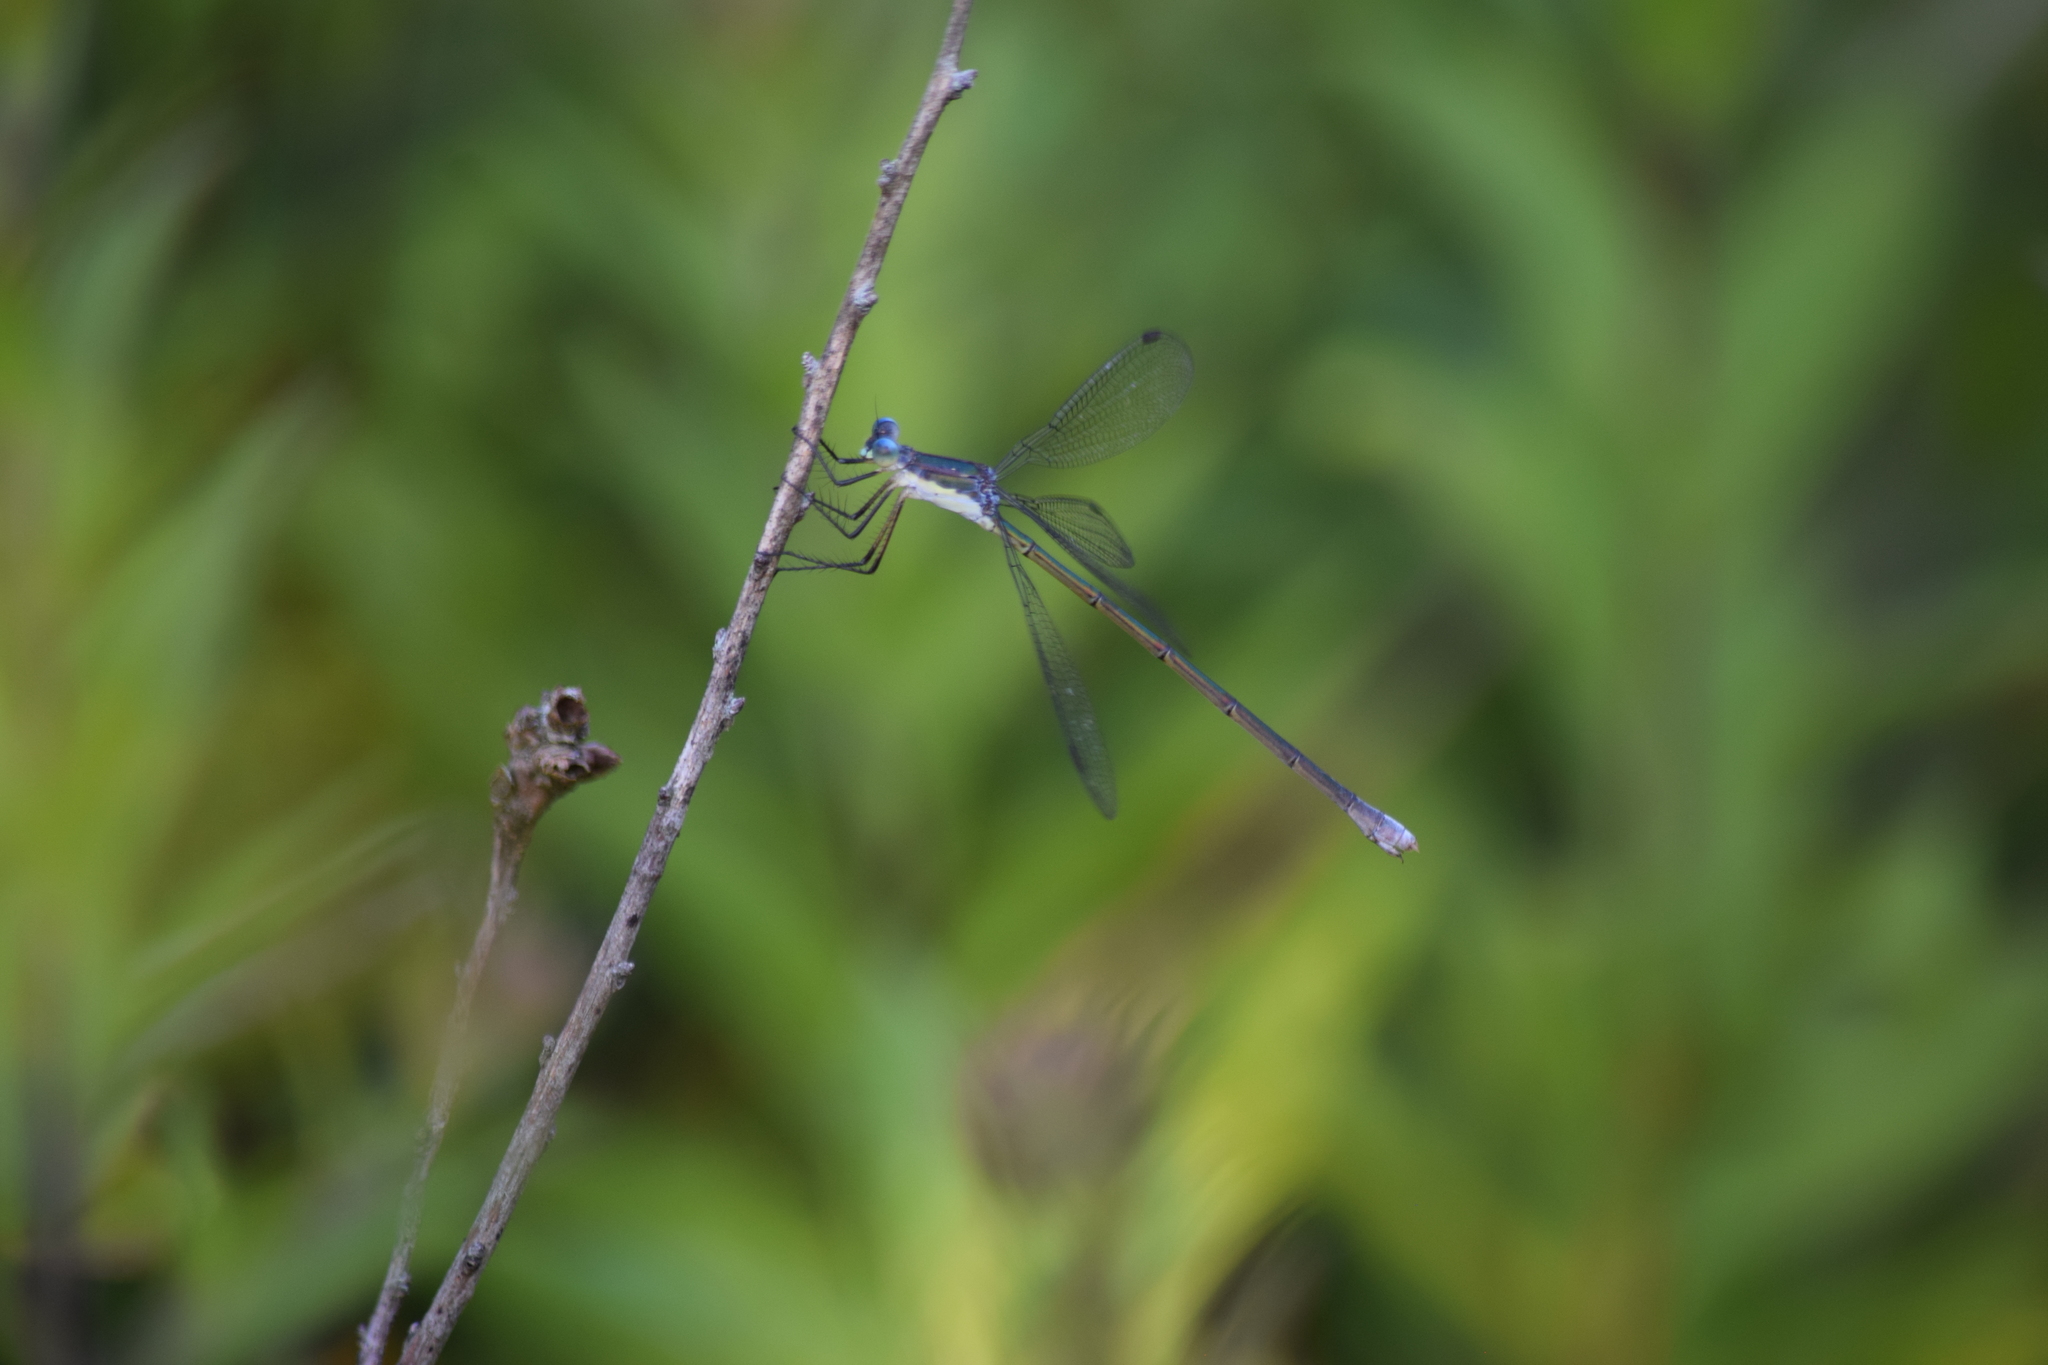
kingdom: Animalia
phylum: Arthropoda
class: Insecta
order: Odonata
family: Lestidae
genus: Lestes
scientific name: Lestes vigilax
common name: Swamp spreadwing
